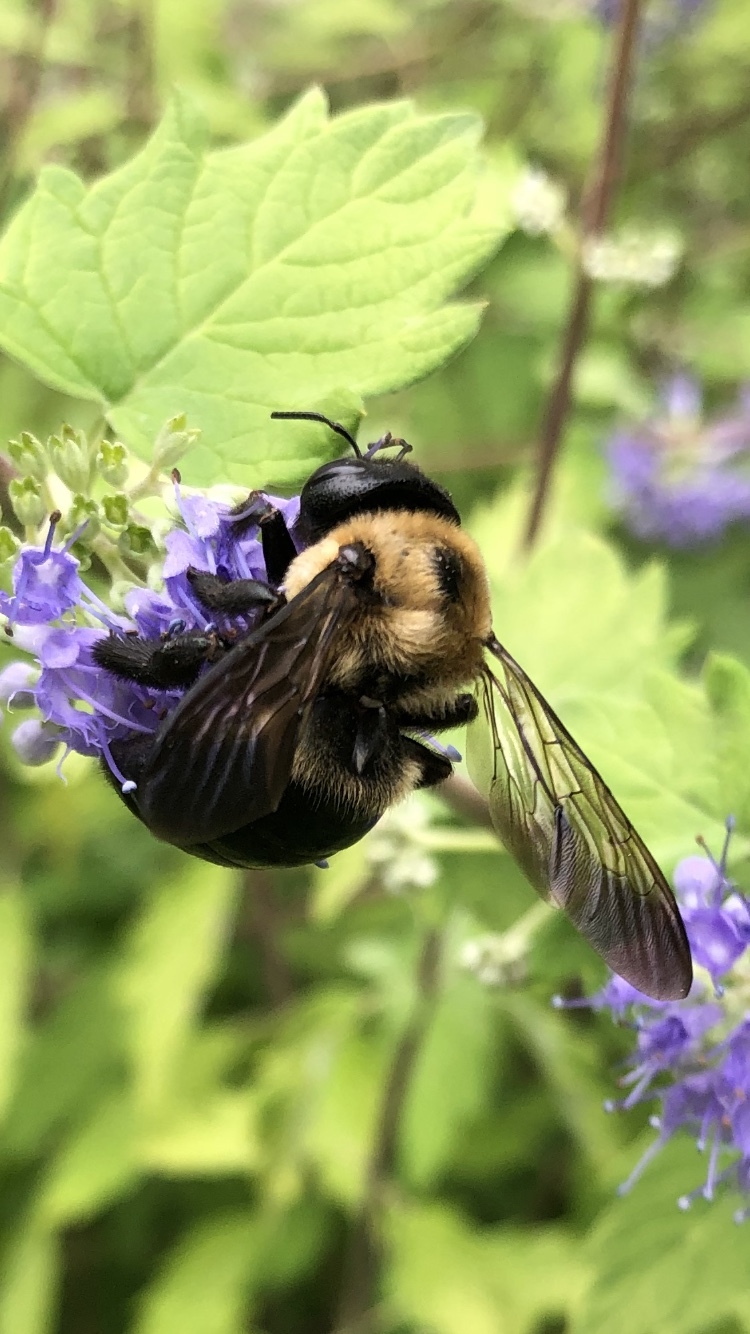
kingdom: Animalia
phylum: Arthropoda
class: Insecta
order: Hymenoptera
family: Apidae
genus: Xylocopa
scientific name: Xylocopa virginica
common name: Carpenter bee
